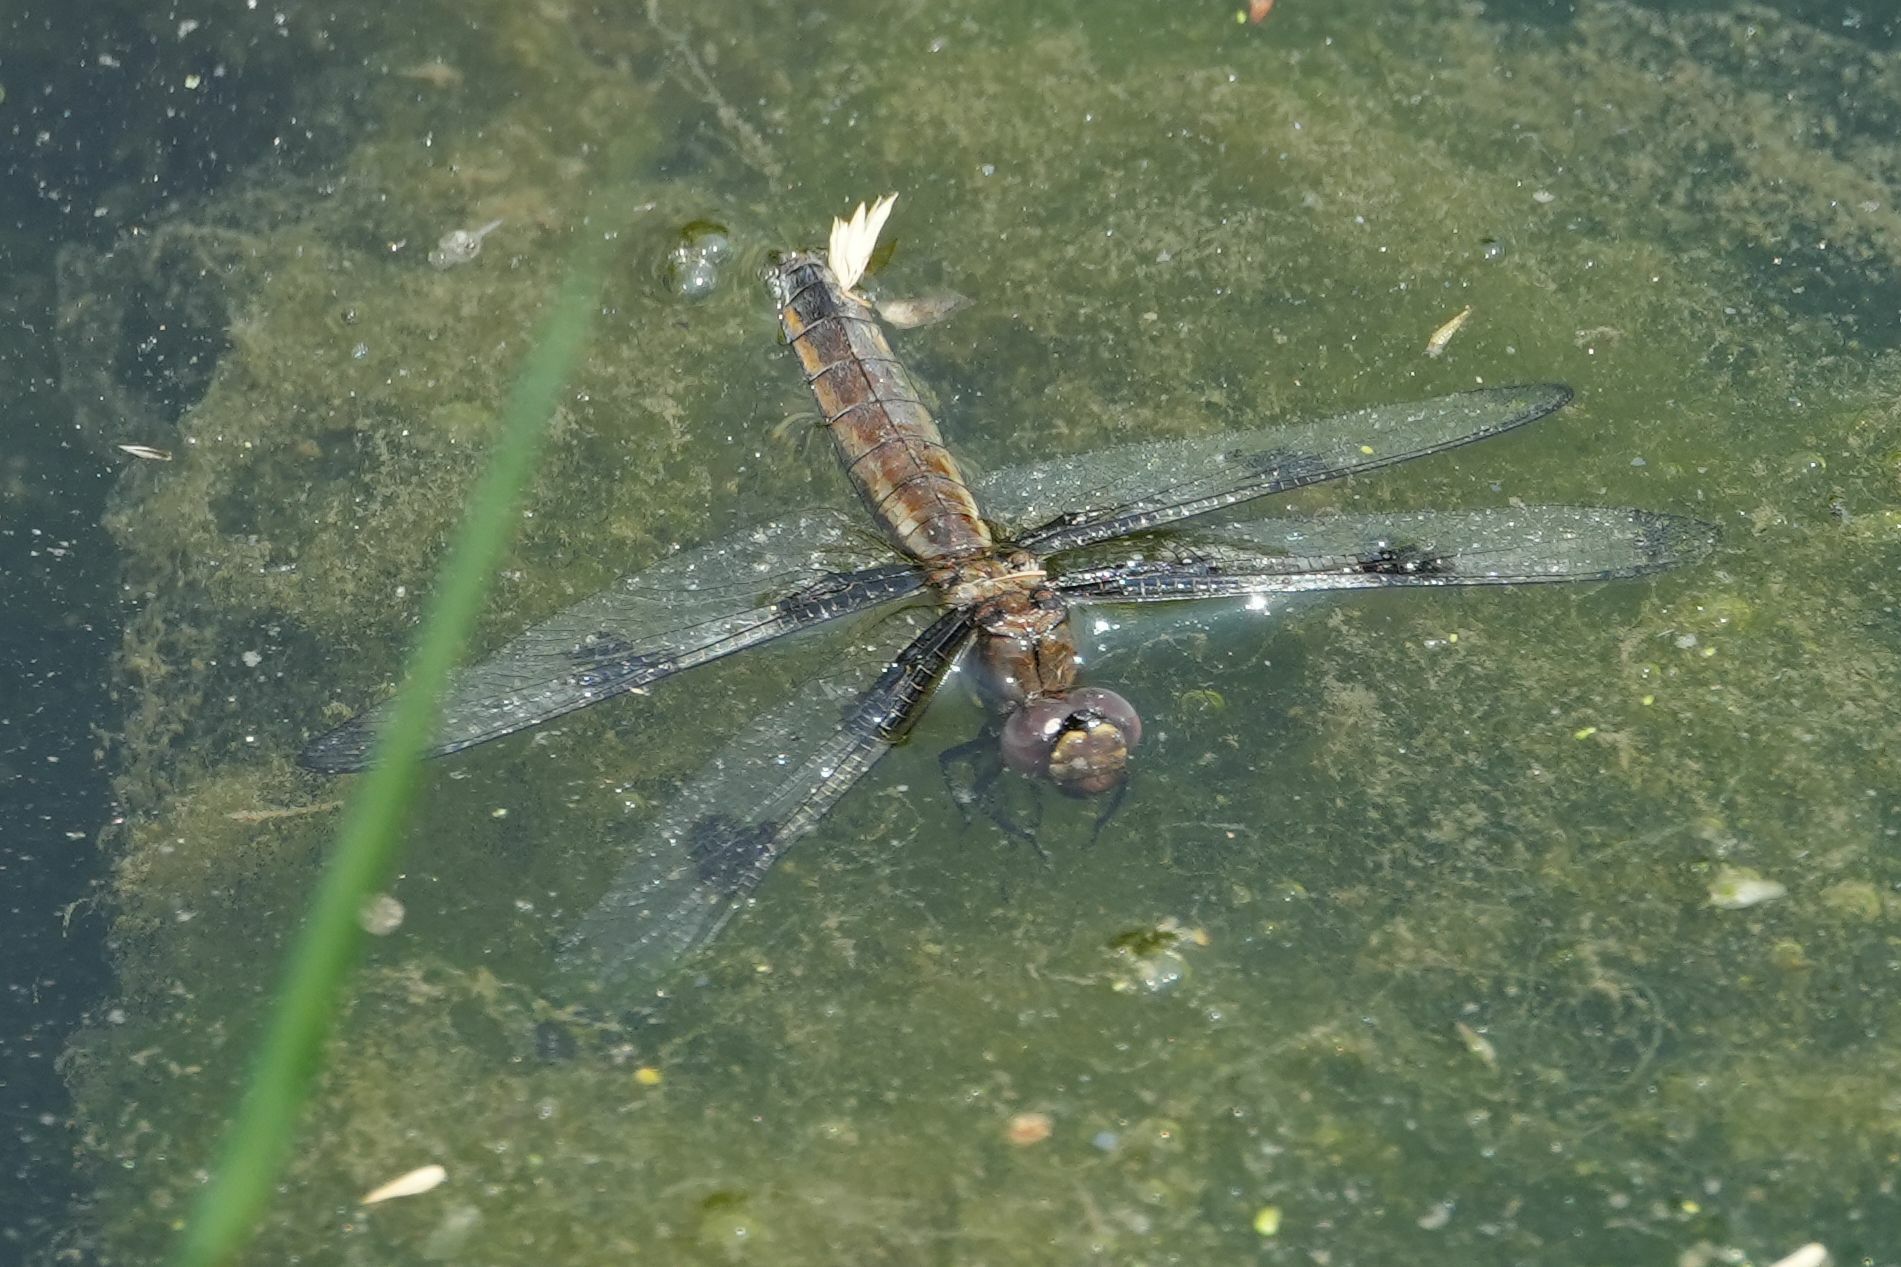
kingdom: Animalia
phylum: Arthropoda
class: Insecta
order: Odonata
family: Libellulidae
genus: Libellula
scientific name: Libellula pulchella
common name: Twelve-spotted skimmer
